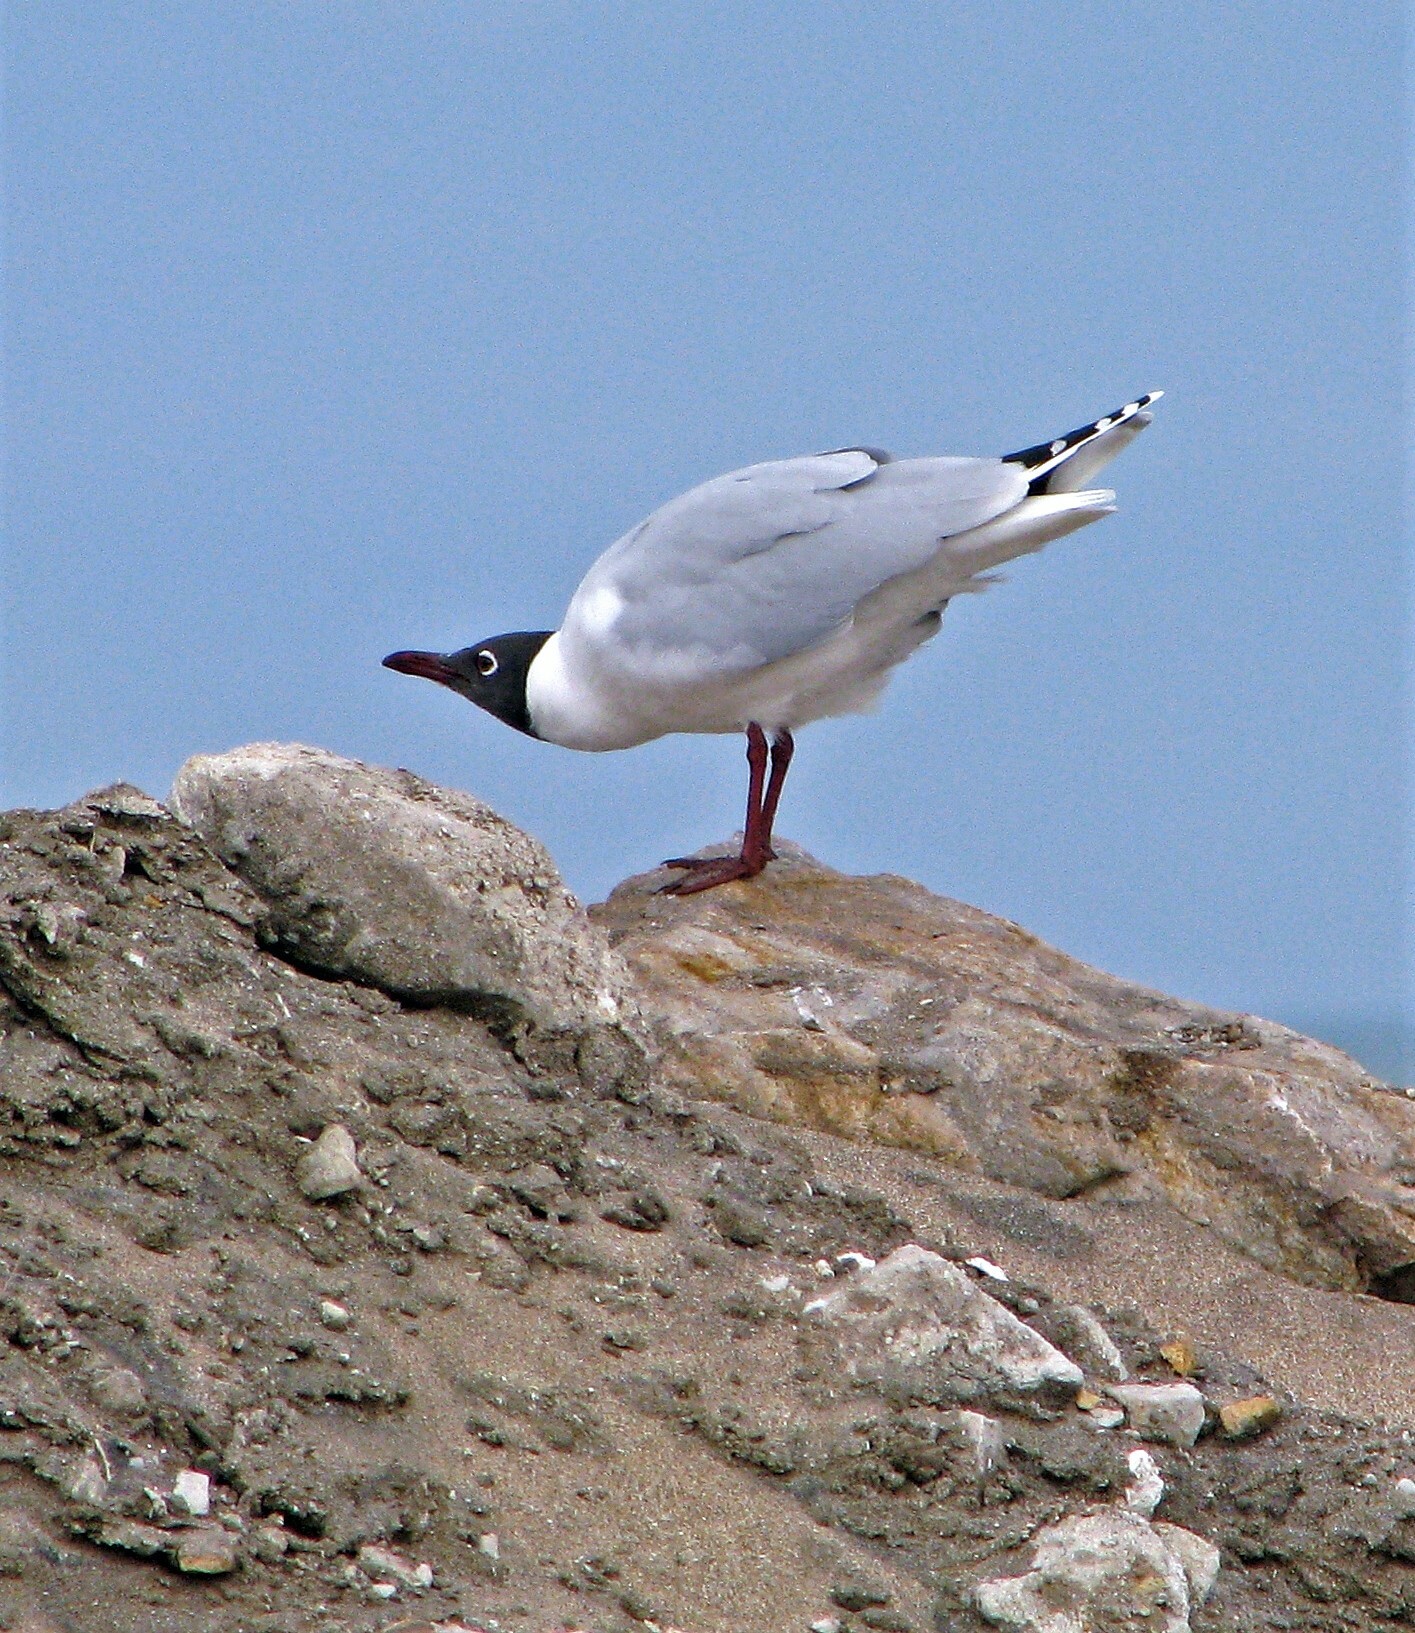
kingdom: Animalia
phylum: Chordata
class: Aves
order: Charadriiformes
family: Laridae
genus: Chroicocephalus
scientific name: Chroicocephalus maculipennis
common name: Brown-hooded gull
